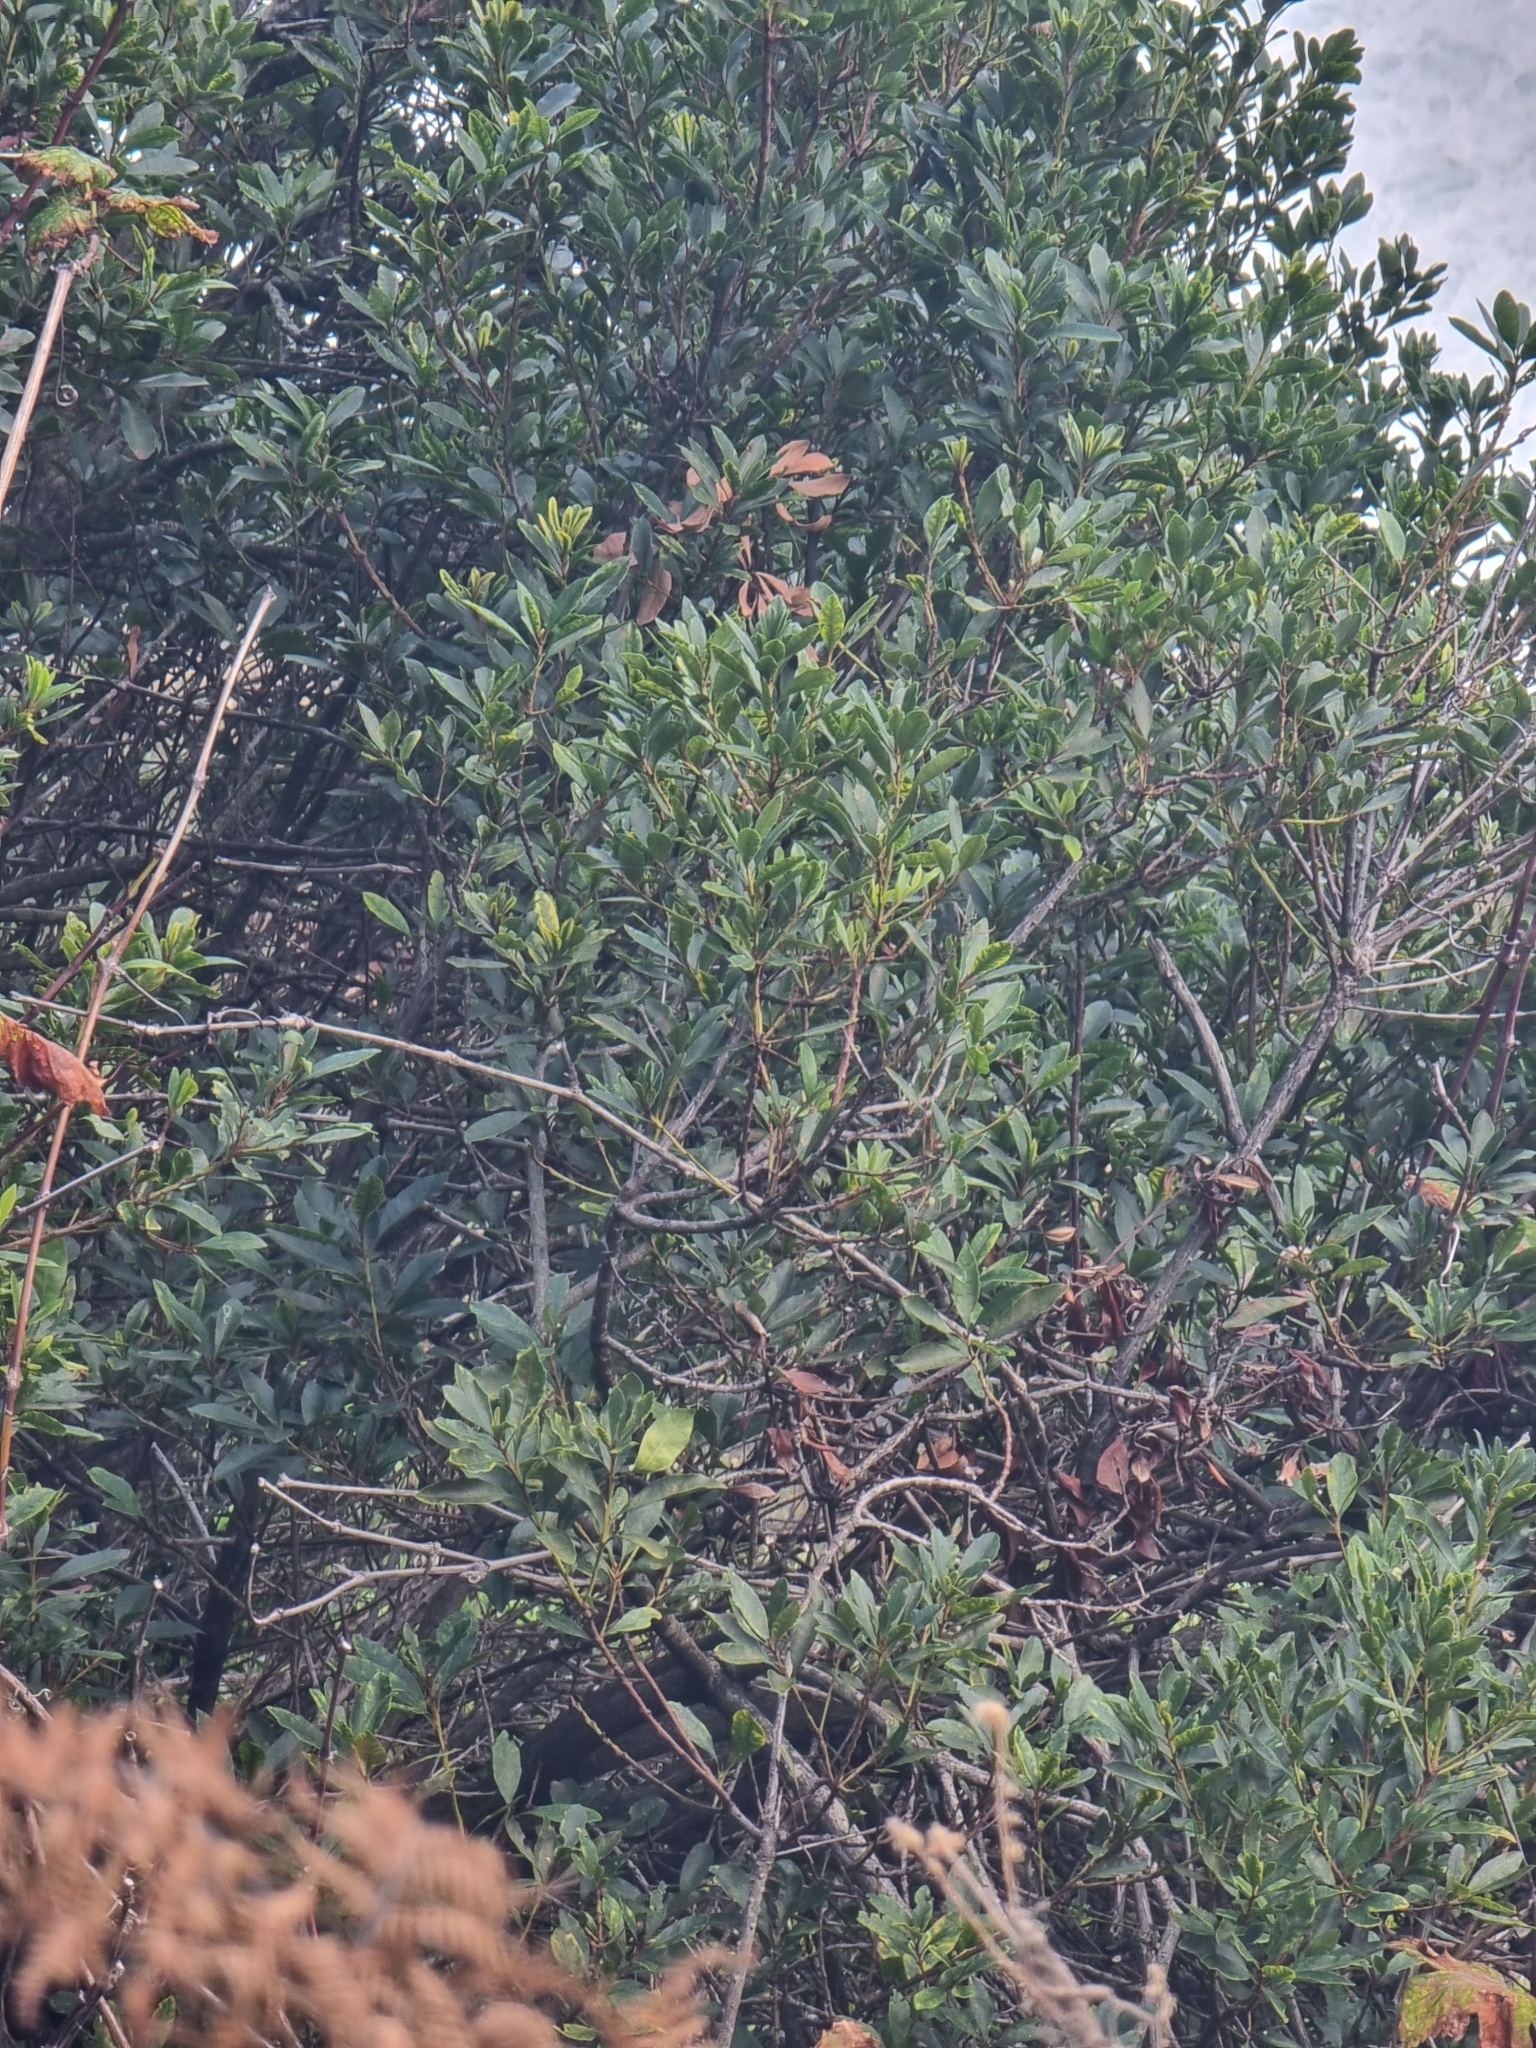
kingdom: Plantae
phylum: Tracheophyta
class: Magnoliopsida
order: Fagales
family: Myricaceae
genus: Morella
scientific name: Morella faya
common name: Firetree
